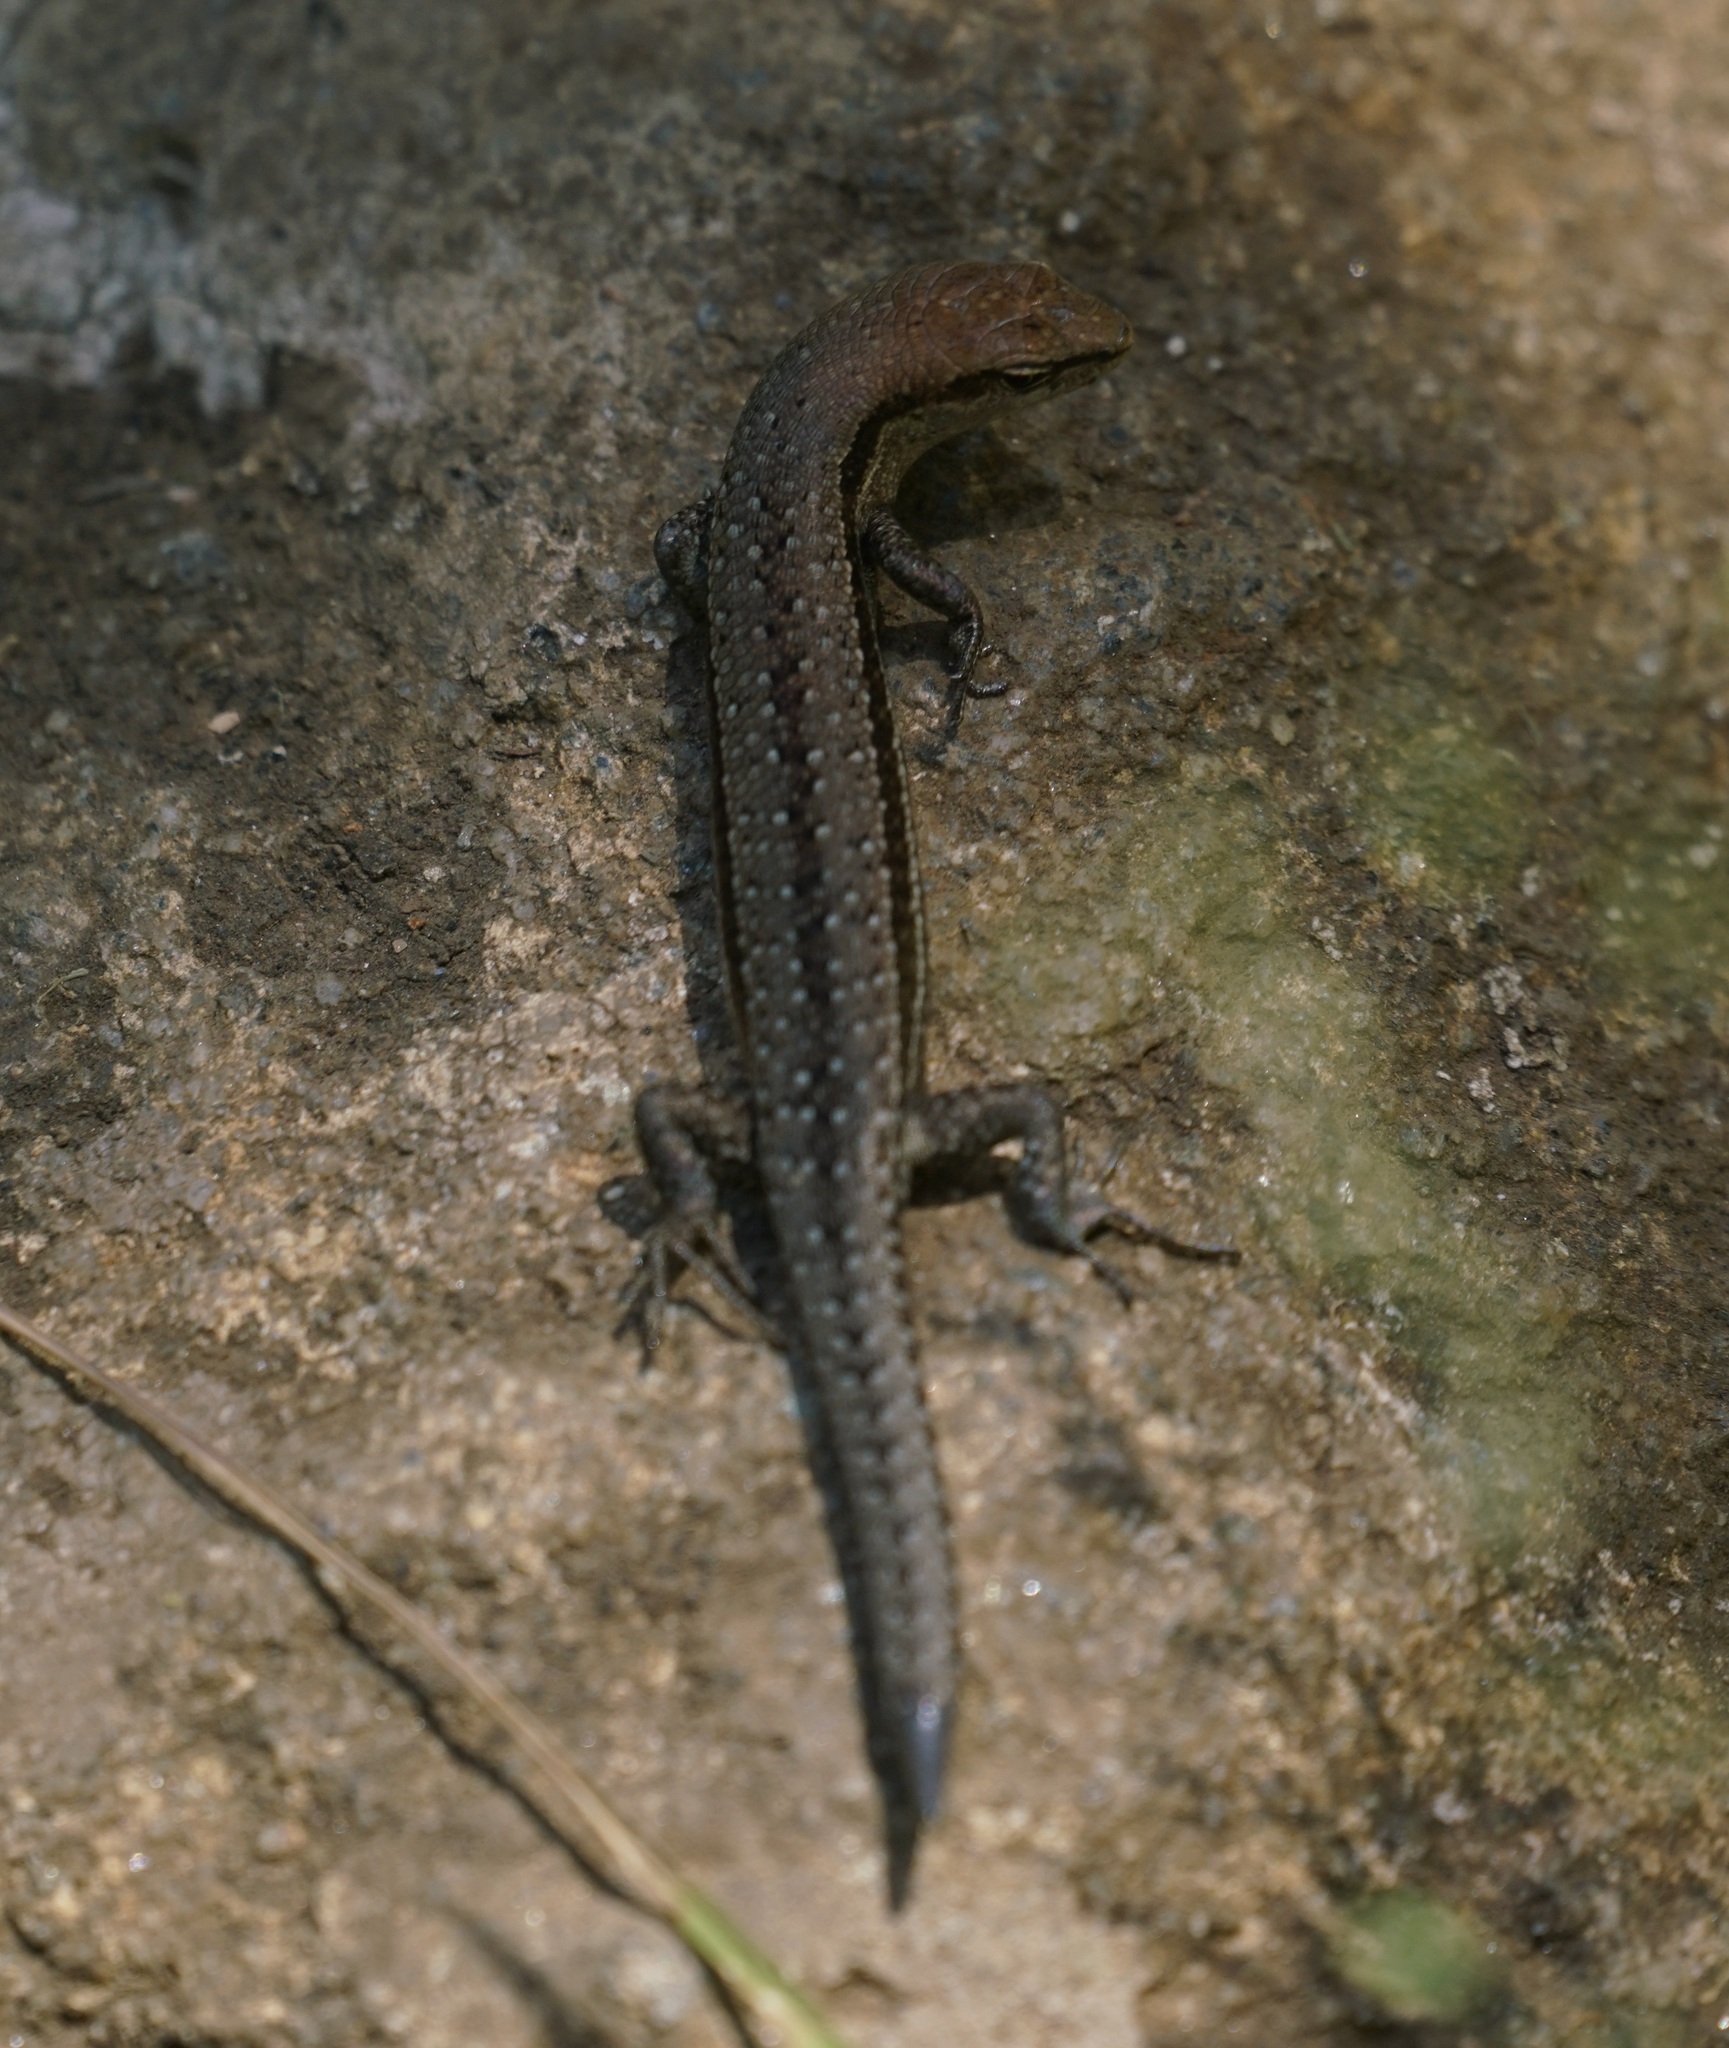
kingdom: Animalia
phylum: Chordata
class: Squamata
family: Scincidae
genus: Lampropholis
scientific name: Lampropholis guichenoti
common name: Garden skink
